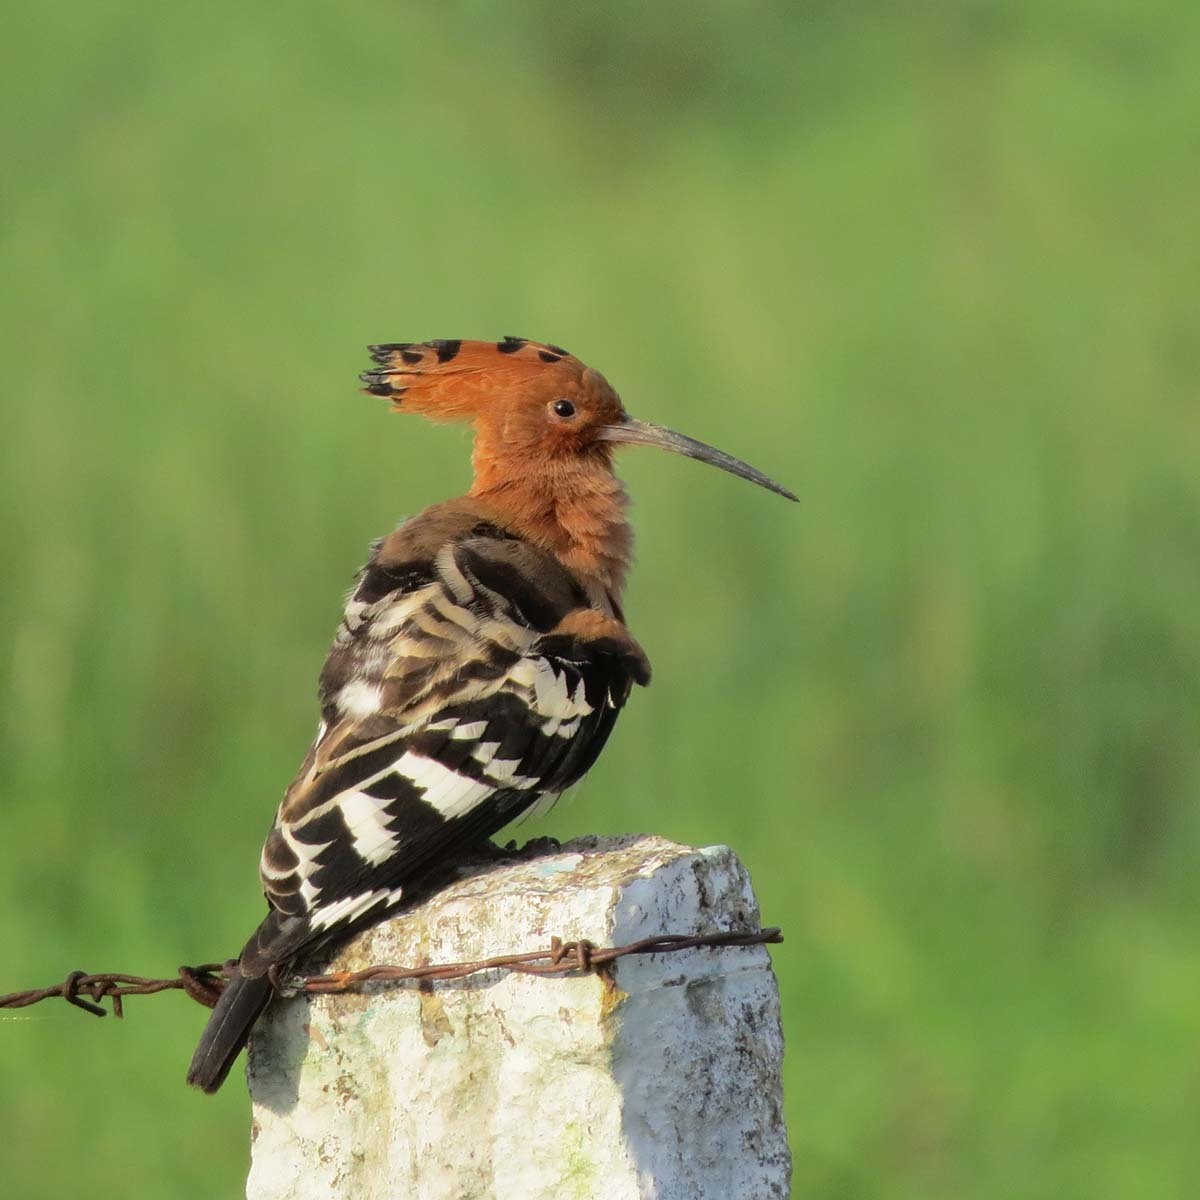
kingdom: Animalia
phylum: Chordata
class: Aves
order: Bucerotiformes
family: Upupidae
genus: Upupa
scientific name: Upupa epops
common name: Eurasian hoopoe
